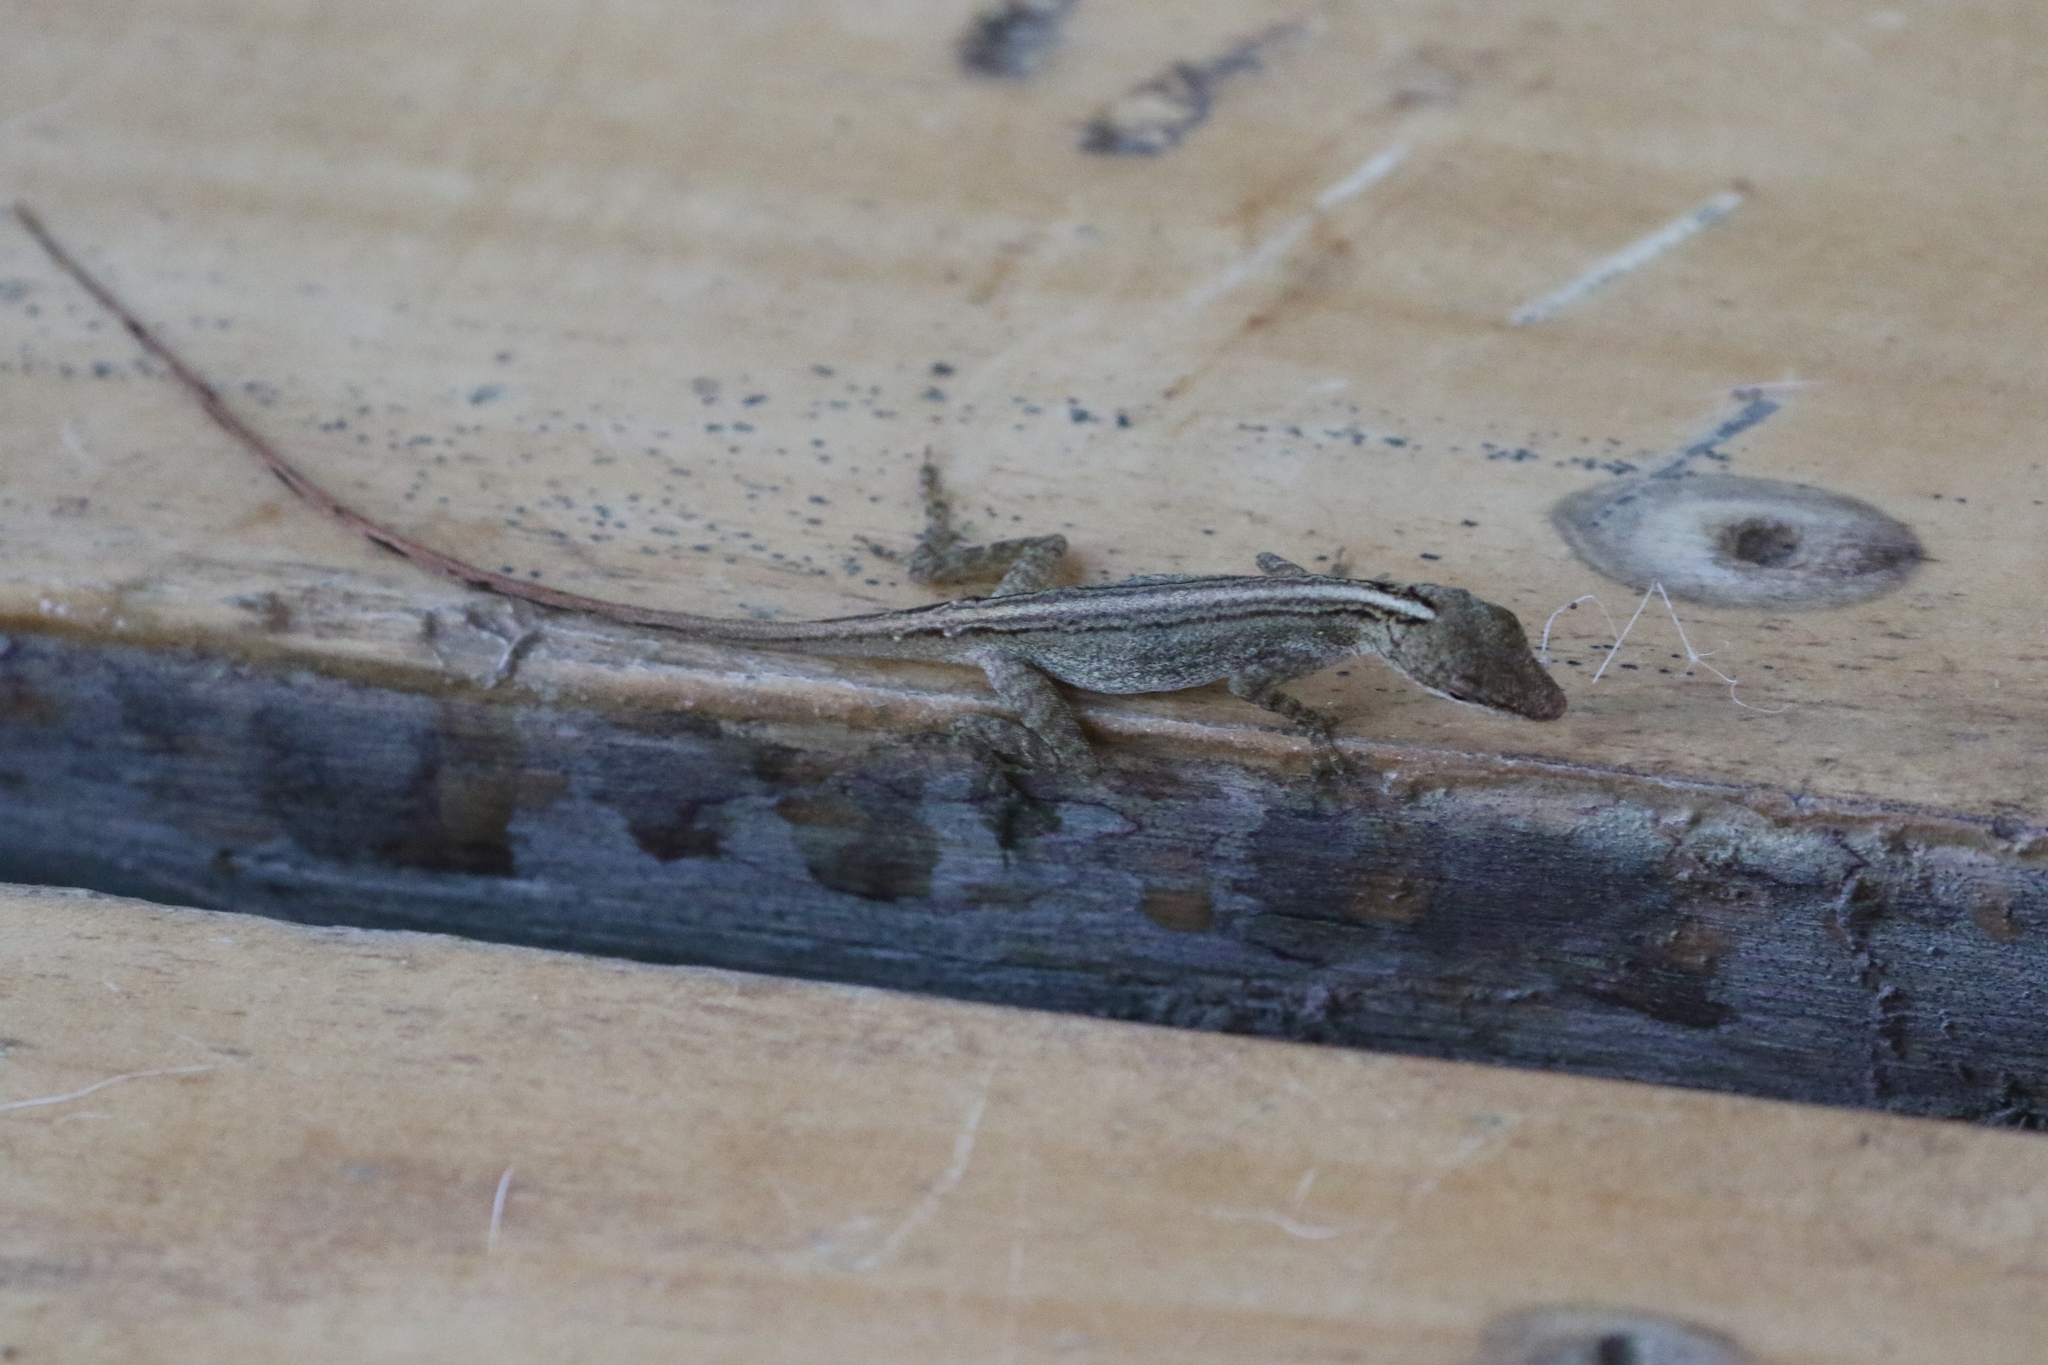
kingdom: Animalia
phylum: Chordata
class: Squamata
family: Dactyloidae
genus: Anolis
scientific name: Anolis limifrons
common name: Border anole
